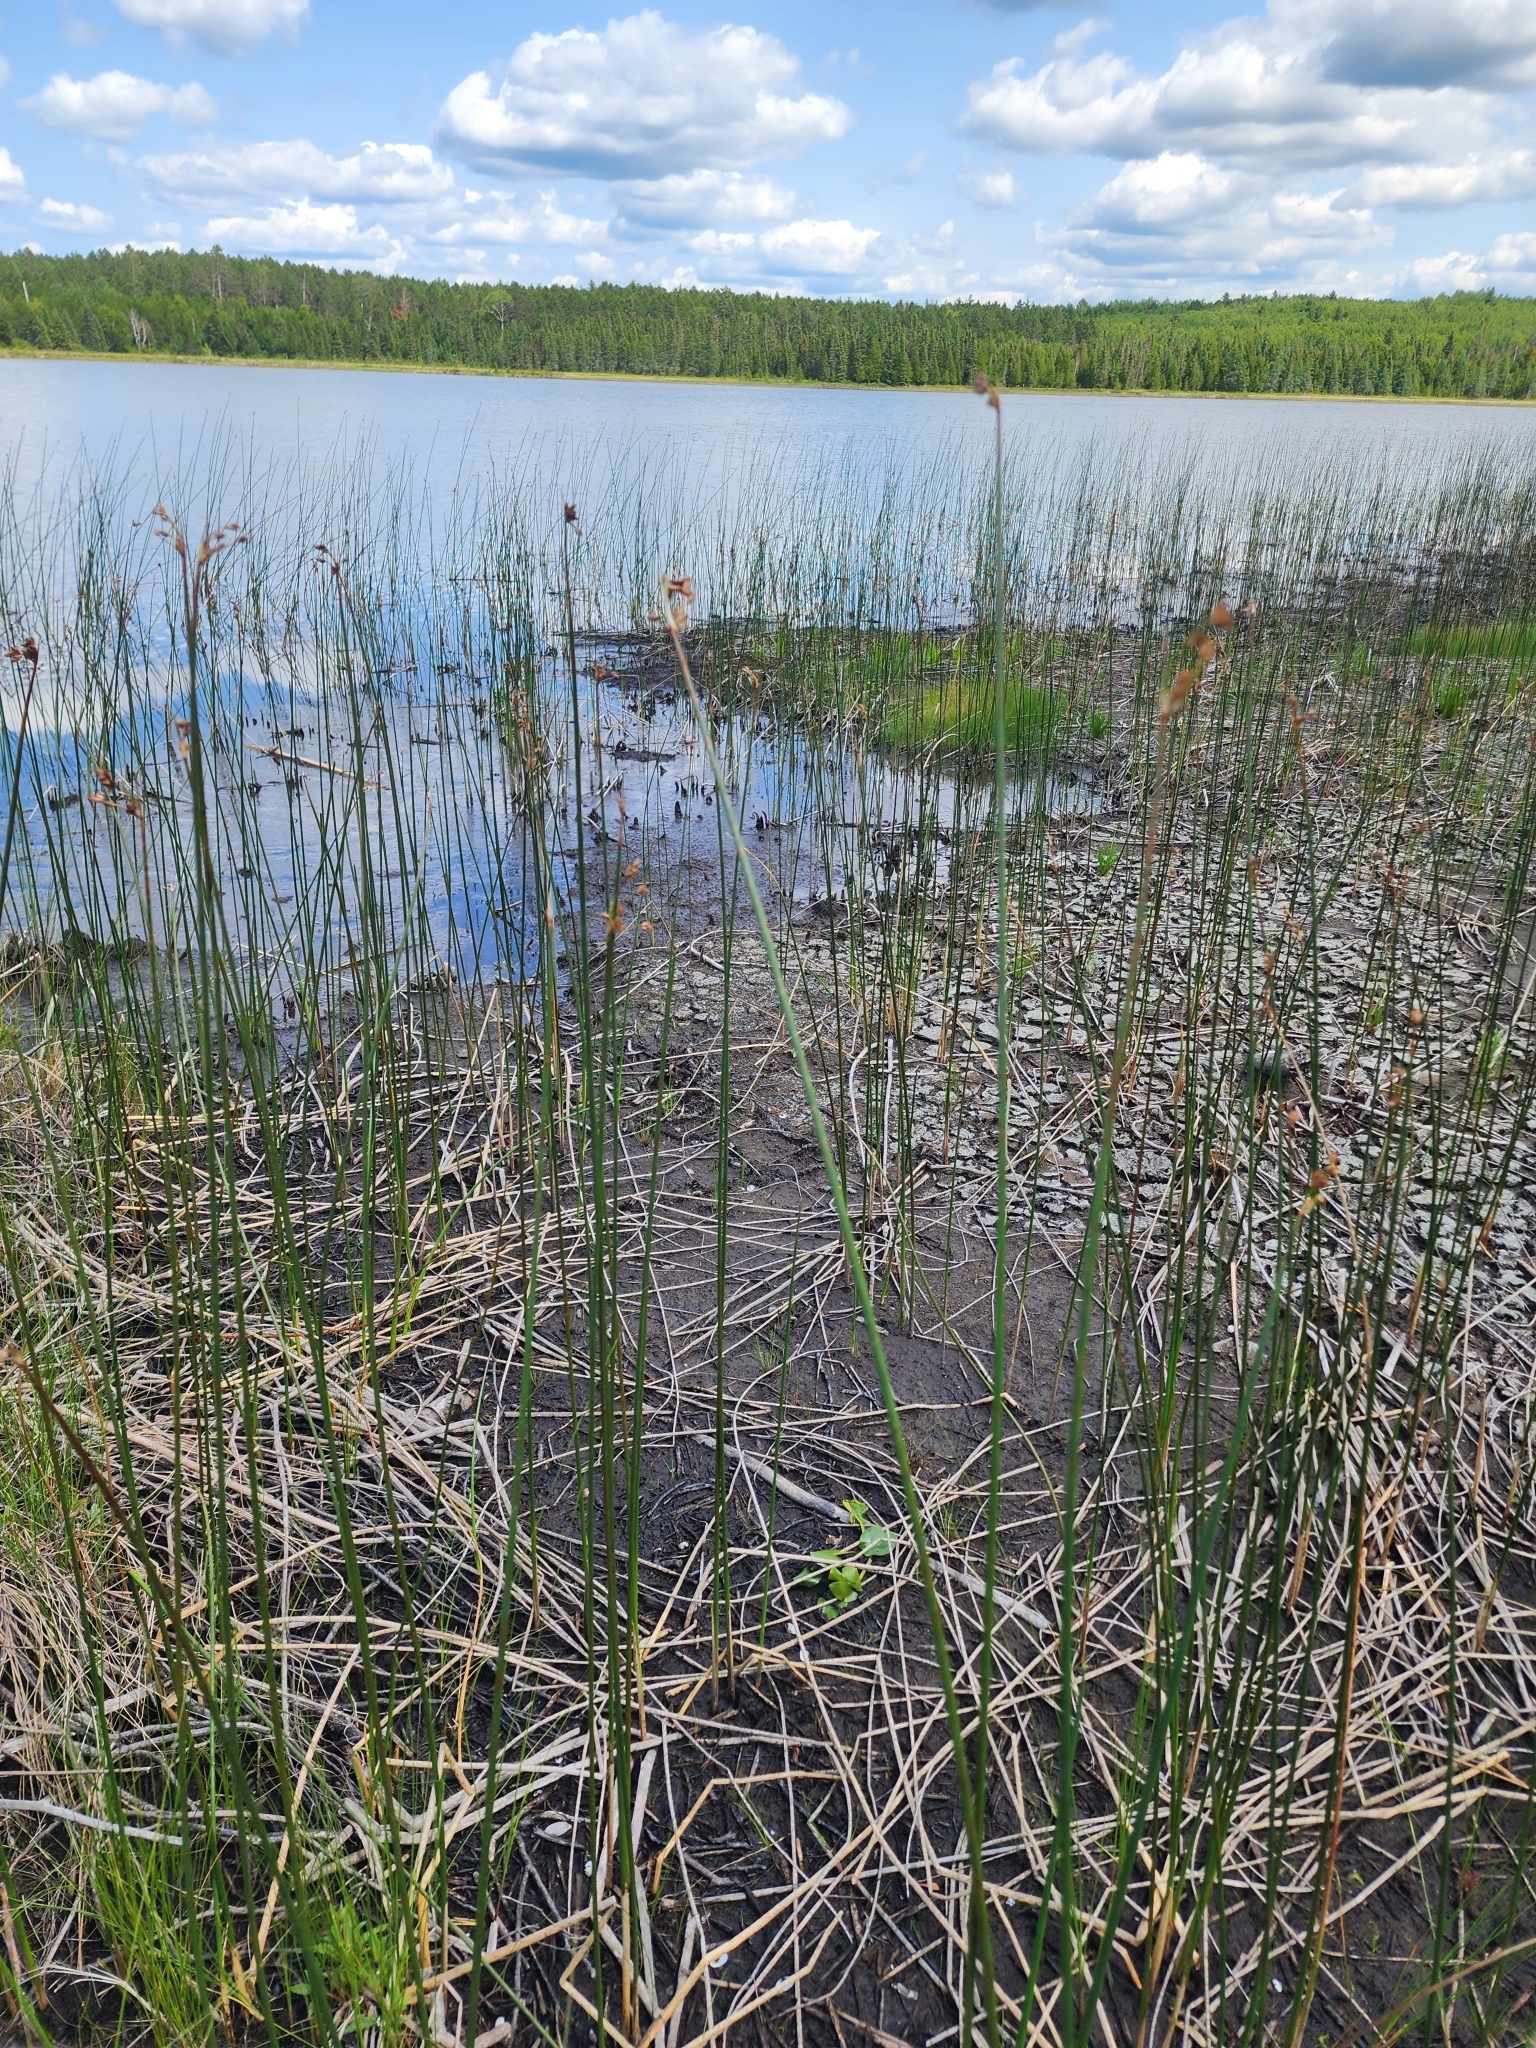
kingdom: Plantae
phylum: Tracheophyta
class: Liliopsida
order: Poales
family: Cyperaceae
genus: Schoenoplectus
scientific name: Schoenoplectus acutus
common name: Hardstem bulrush
